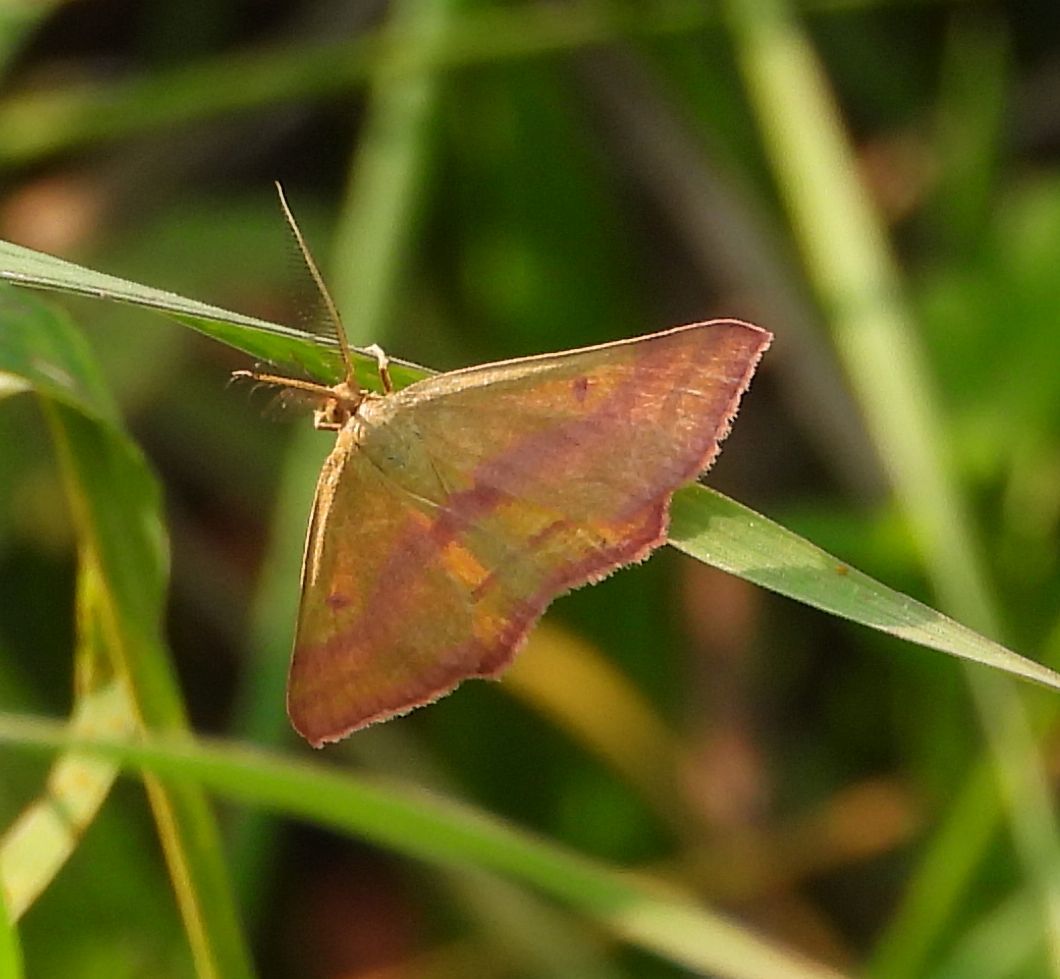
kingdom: Animalia
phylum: Arthropoda
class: Insecta
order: Lepidoptera
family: Geometridae
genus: Haematopis
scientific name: Haematopis grataria
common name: Chickweed geometer
